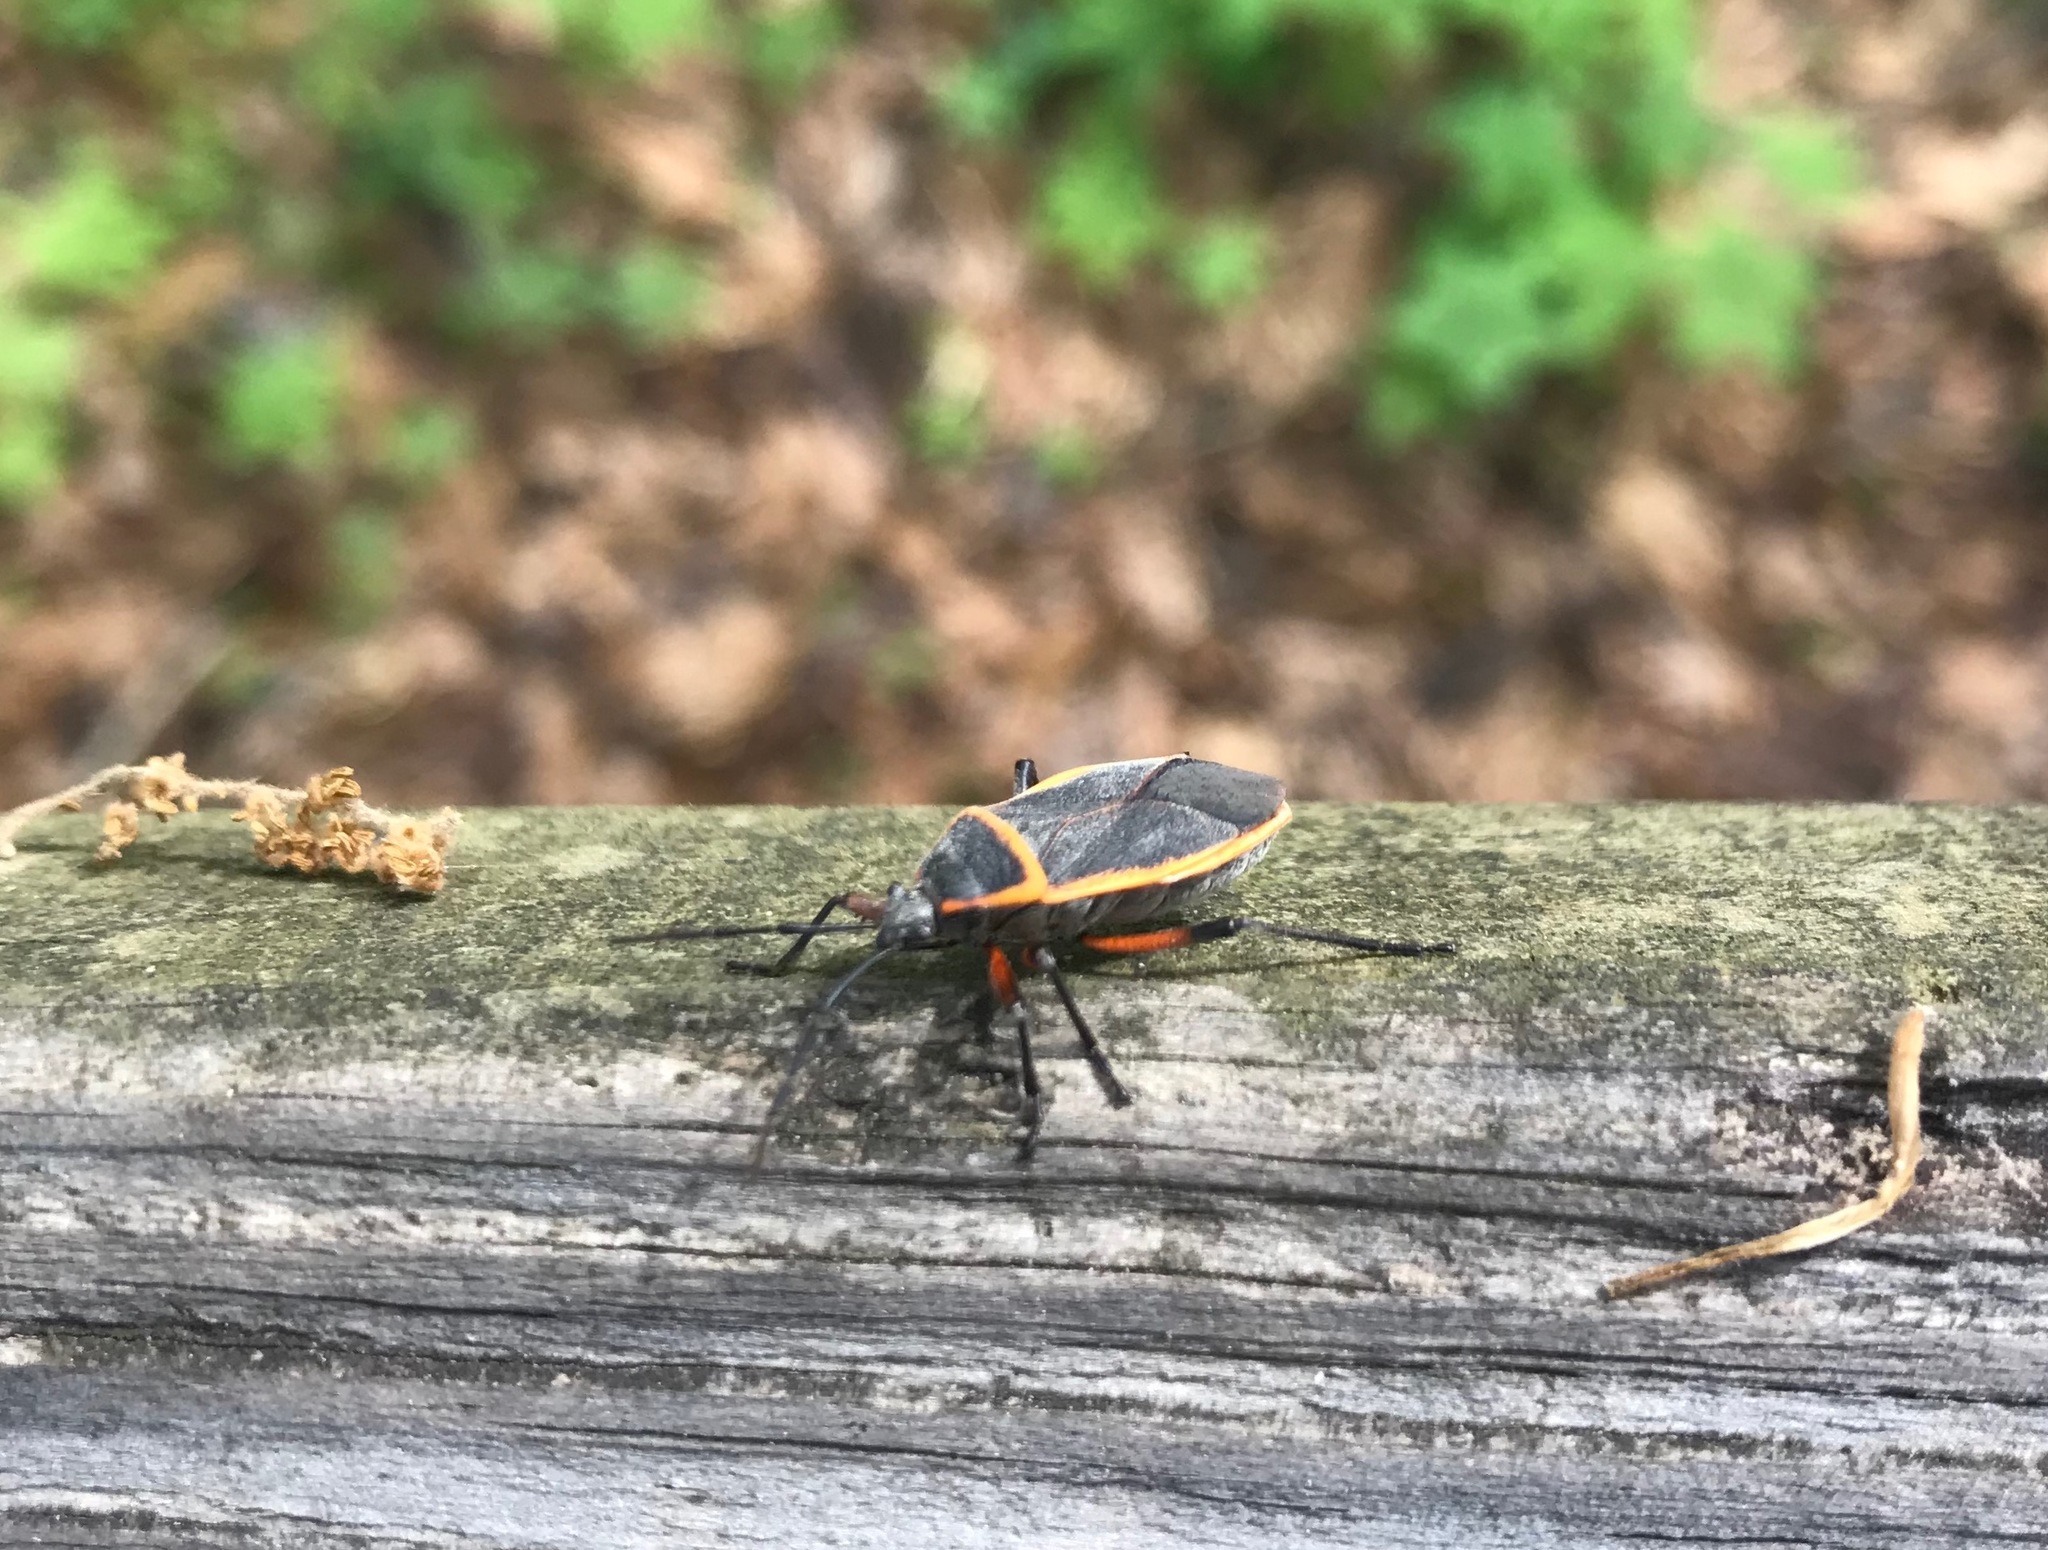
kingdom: Animalia
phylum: Arthropoda
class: Insecta
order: Hemiptera
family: Largidae
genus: Largus
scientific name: Largus succinctus
